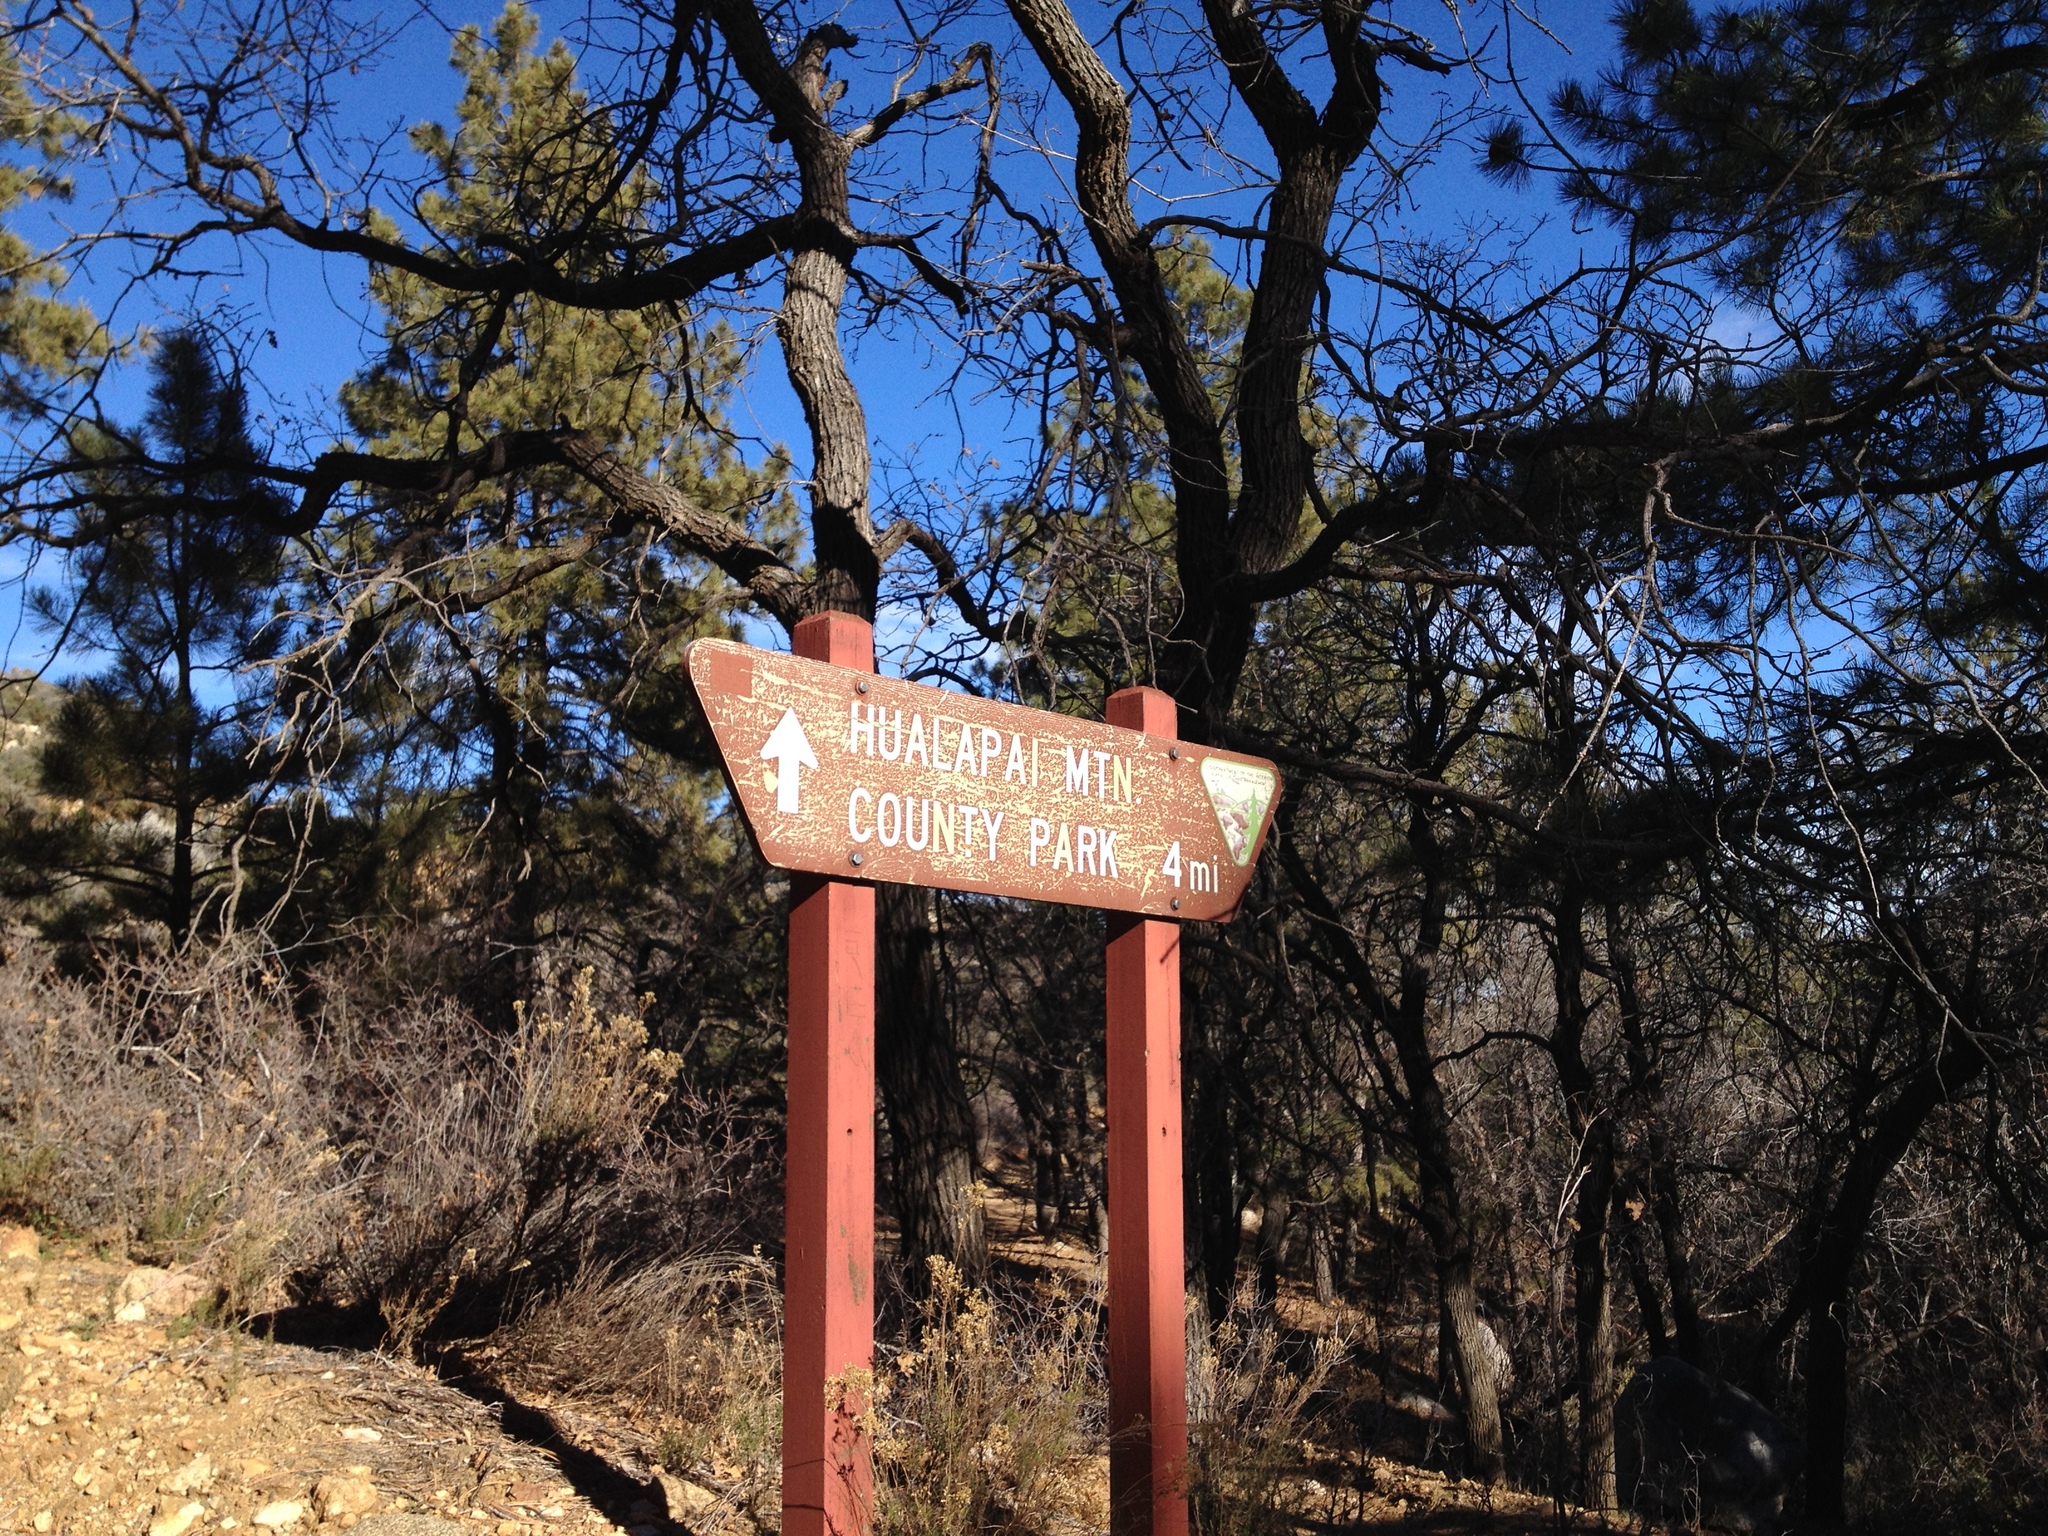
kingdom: Plantae
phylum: Tracheophyta
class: Magnoliopsida
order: Fagales
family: Fagaceae
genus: Quercus
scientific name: Quercus gambelii
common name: Gambel oak
